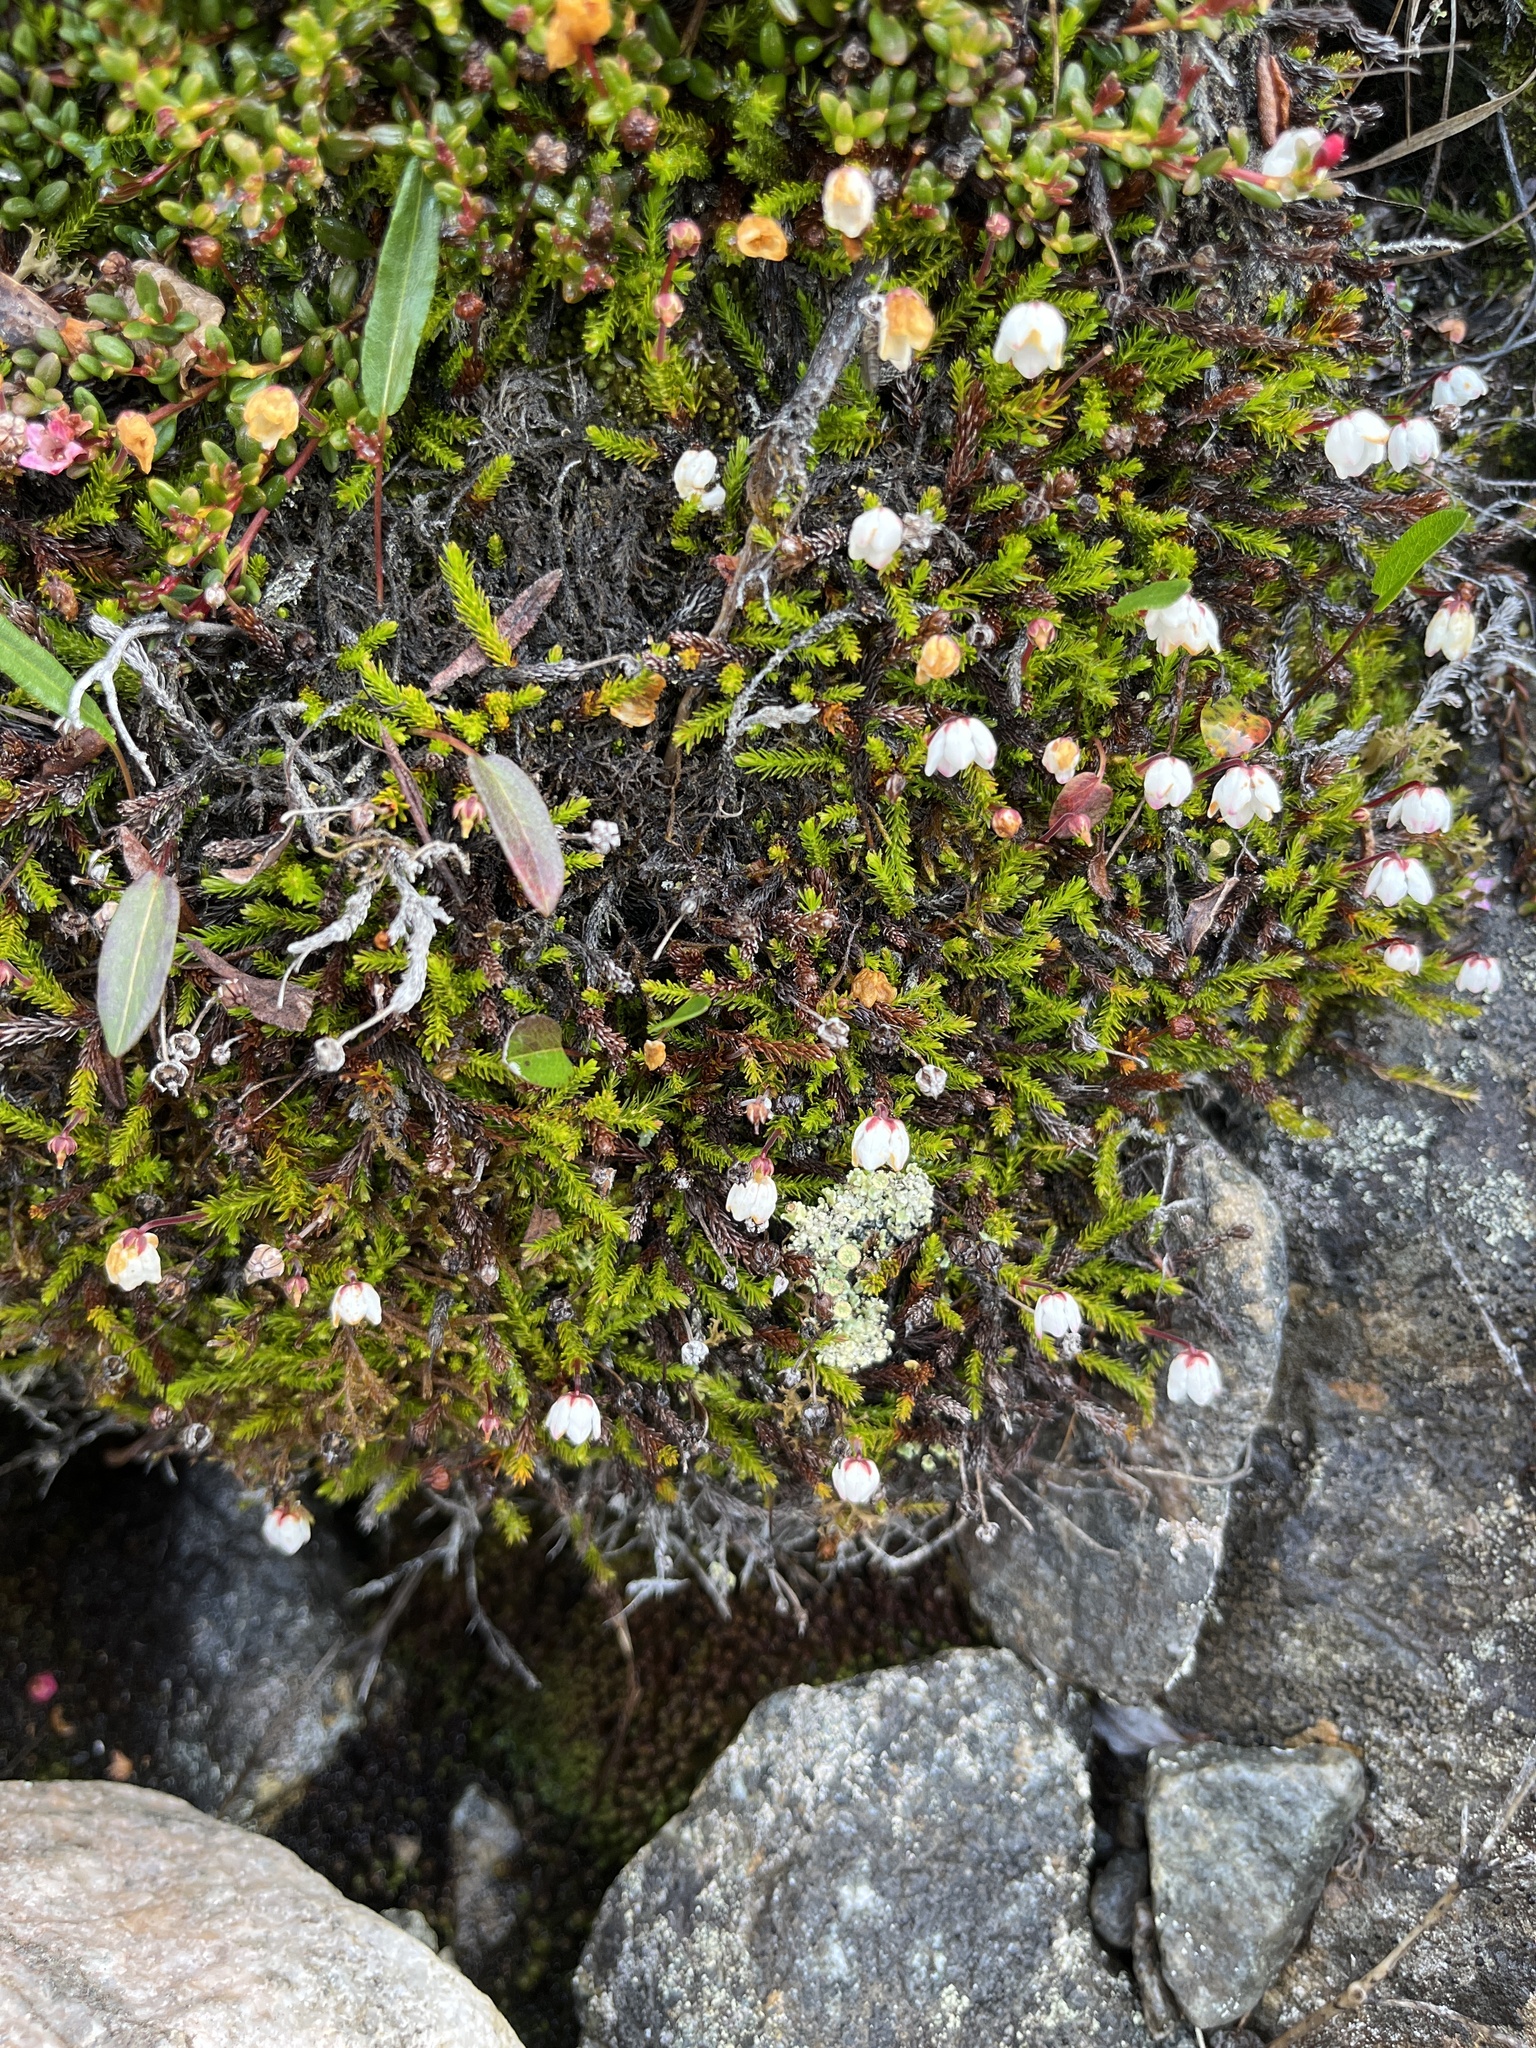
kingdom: Plantae
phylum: Tracheophyta
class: Magnoliopsida
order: Ericales
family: Ericaceae
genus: Harrimanella
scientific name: Harrimanella hypnoides
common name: Moss bell heather
